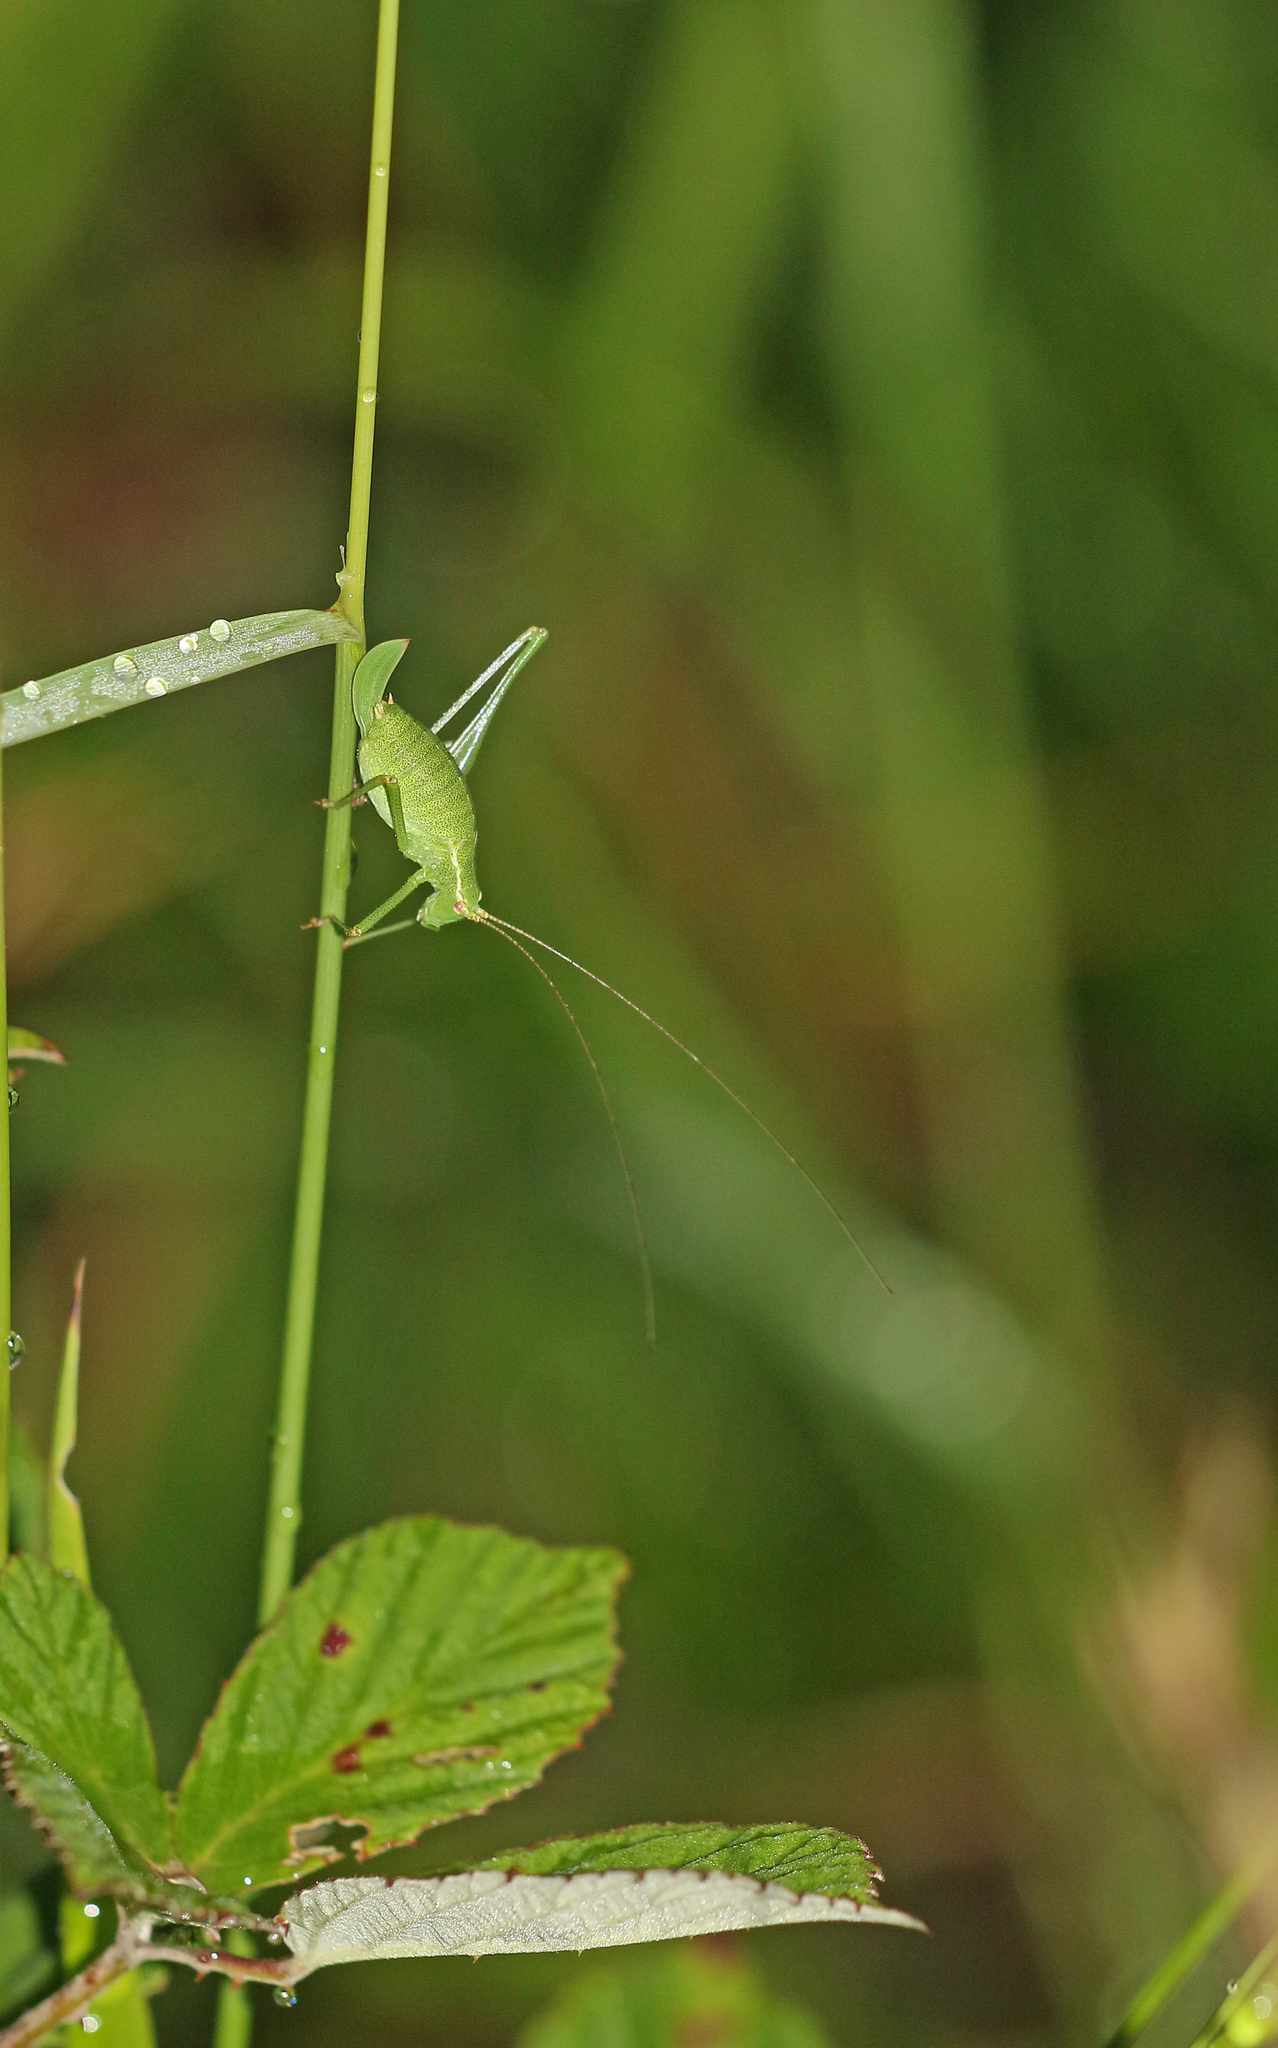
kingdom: Animalia
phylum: Arthropoda
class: Insecta
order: Orthoptera
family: Tettigoniidae
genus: Leptophyes
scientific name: Leptophyes punctatissima
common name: Speckled bush-cricket
